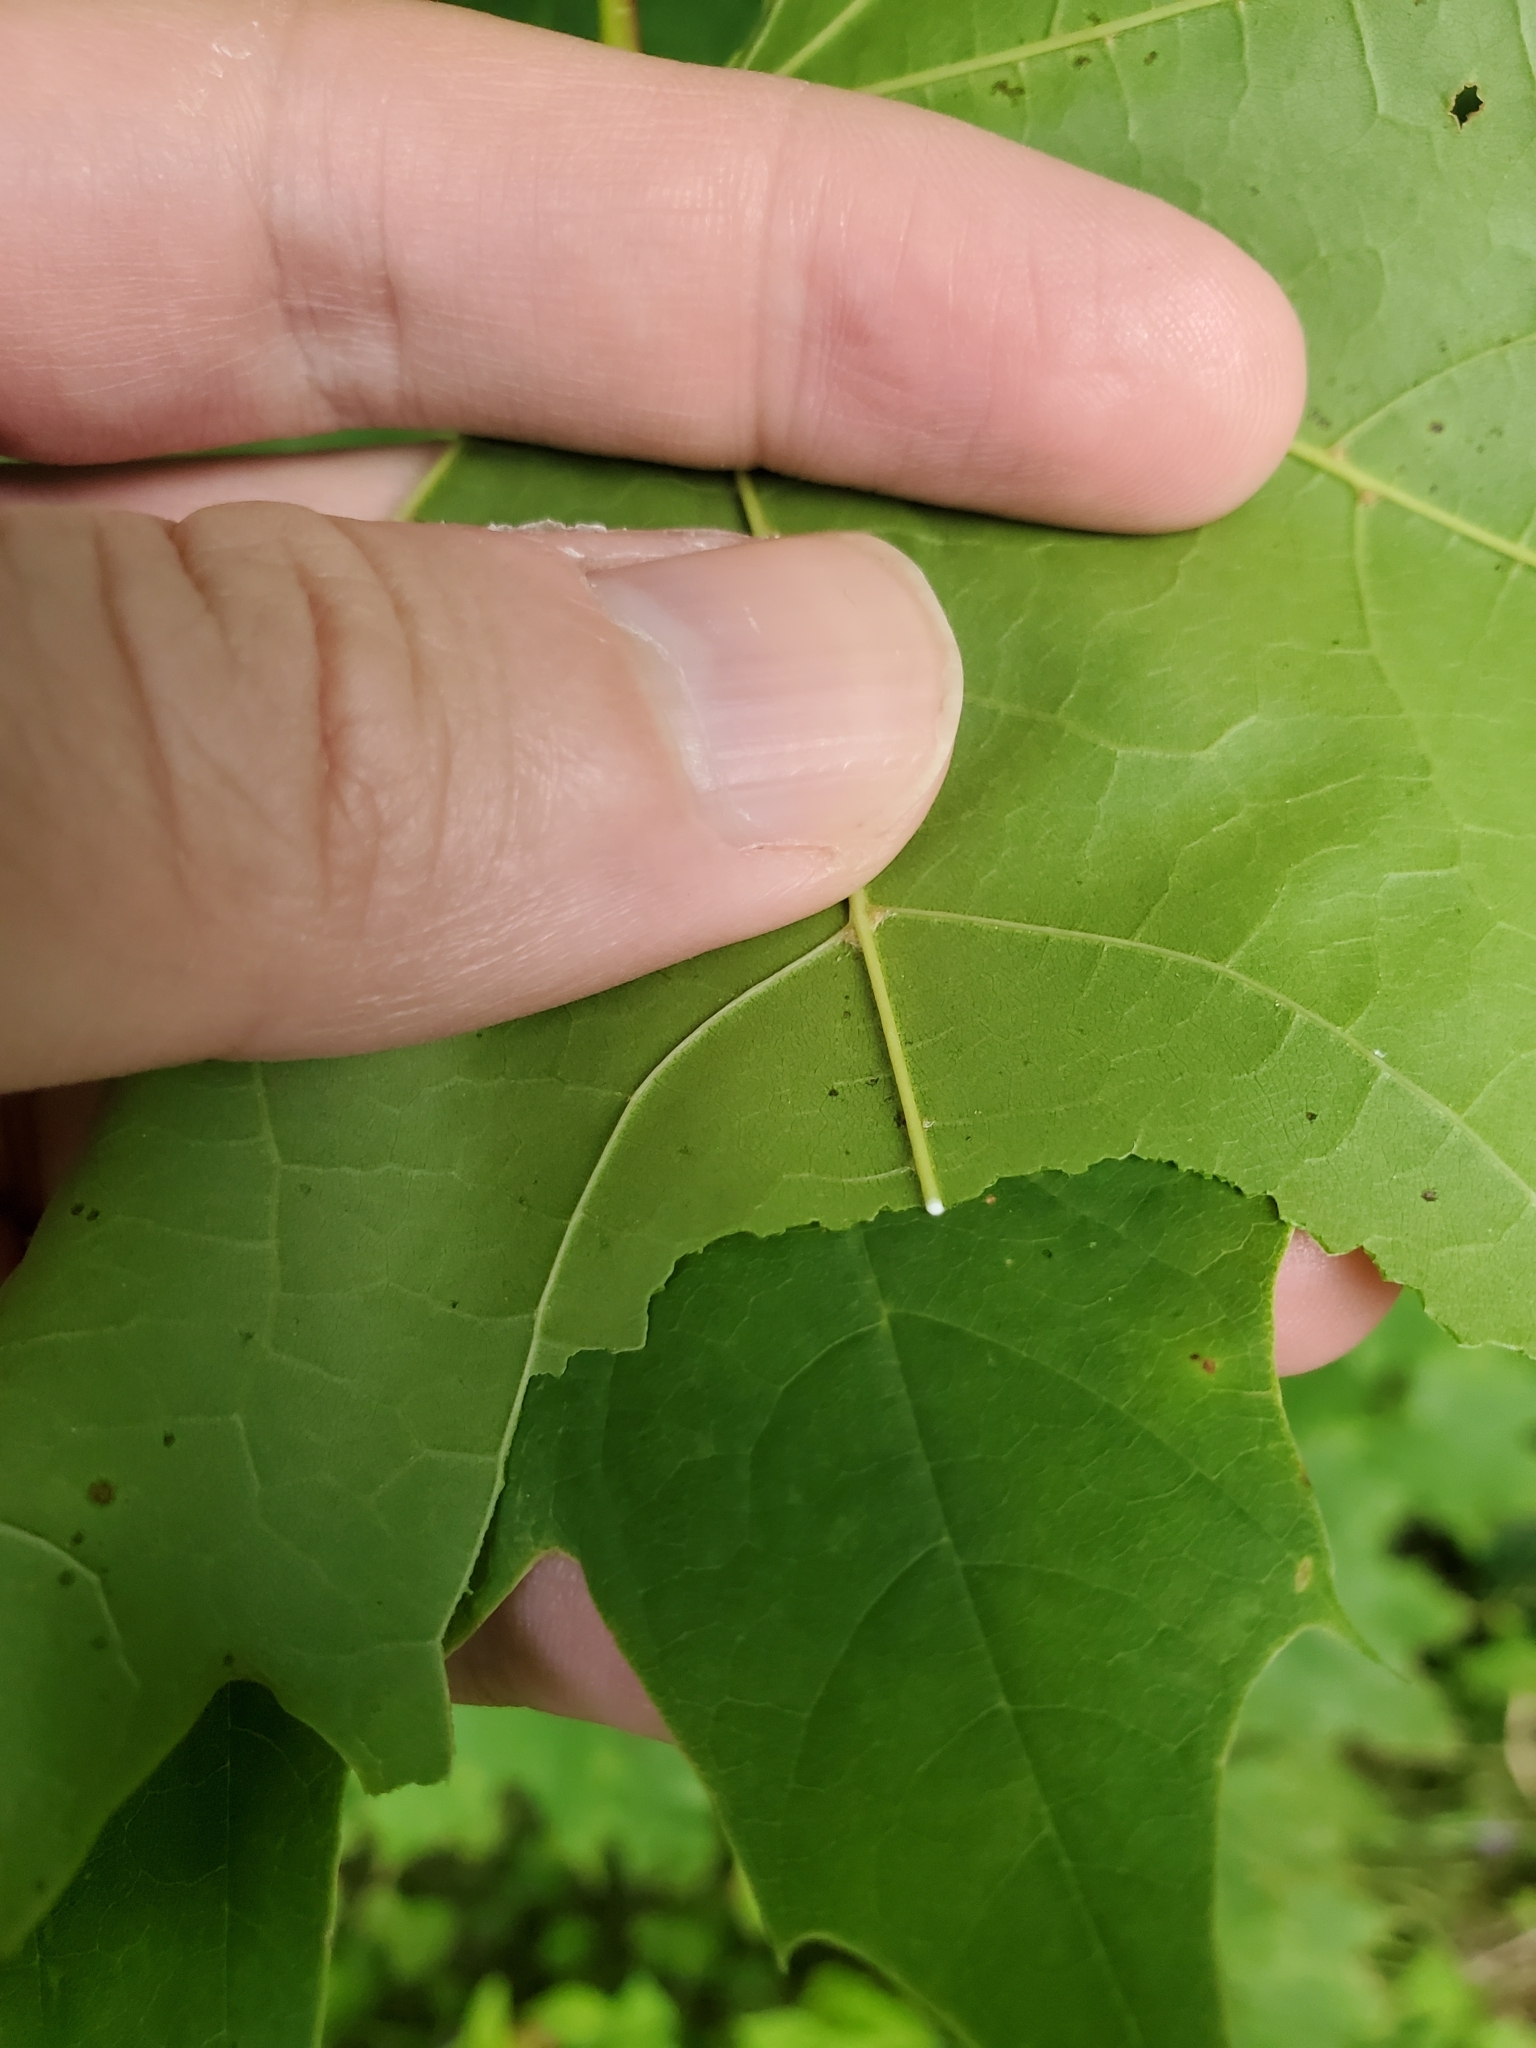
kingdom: Plantae
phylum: Tracheophyta
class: Magnoliopsida
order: Sapindales
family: Sapindaceae
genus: Acer
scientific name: Acer platanoides
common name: Norway maple
